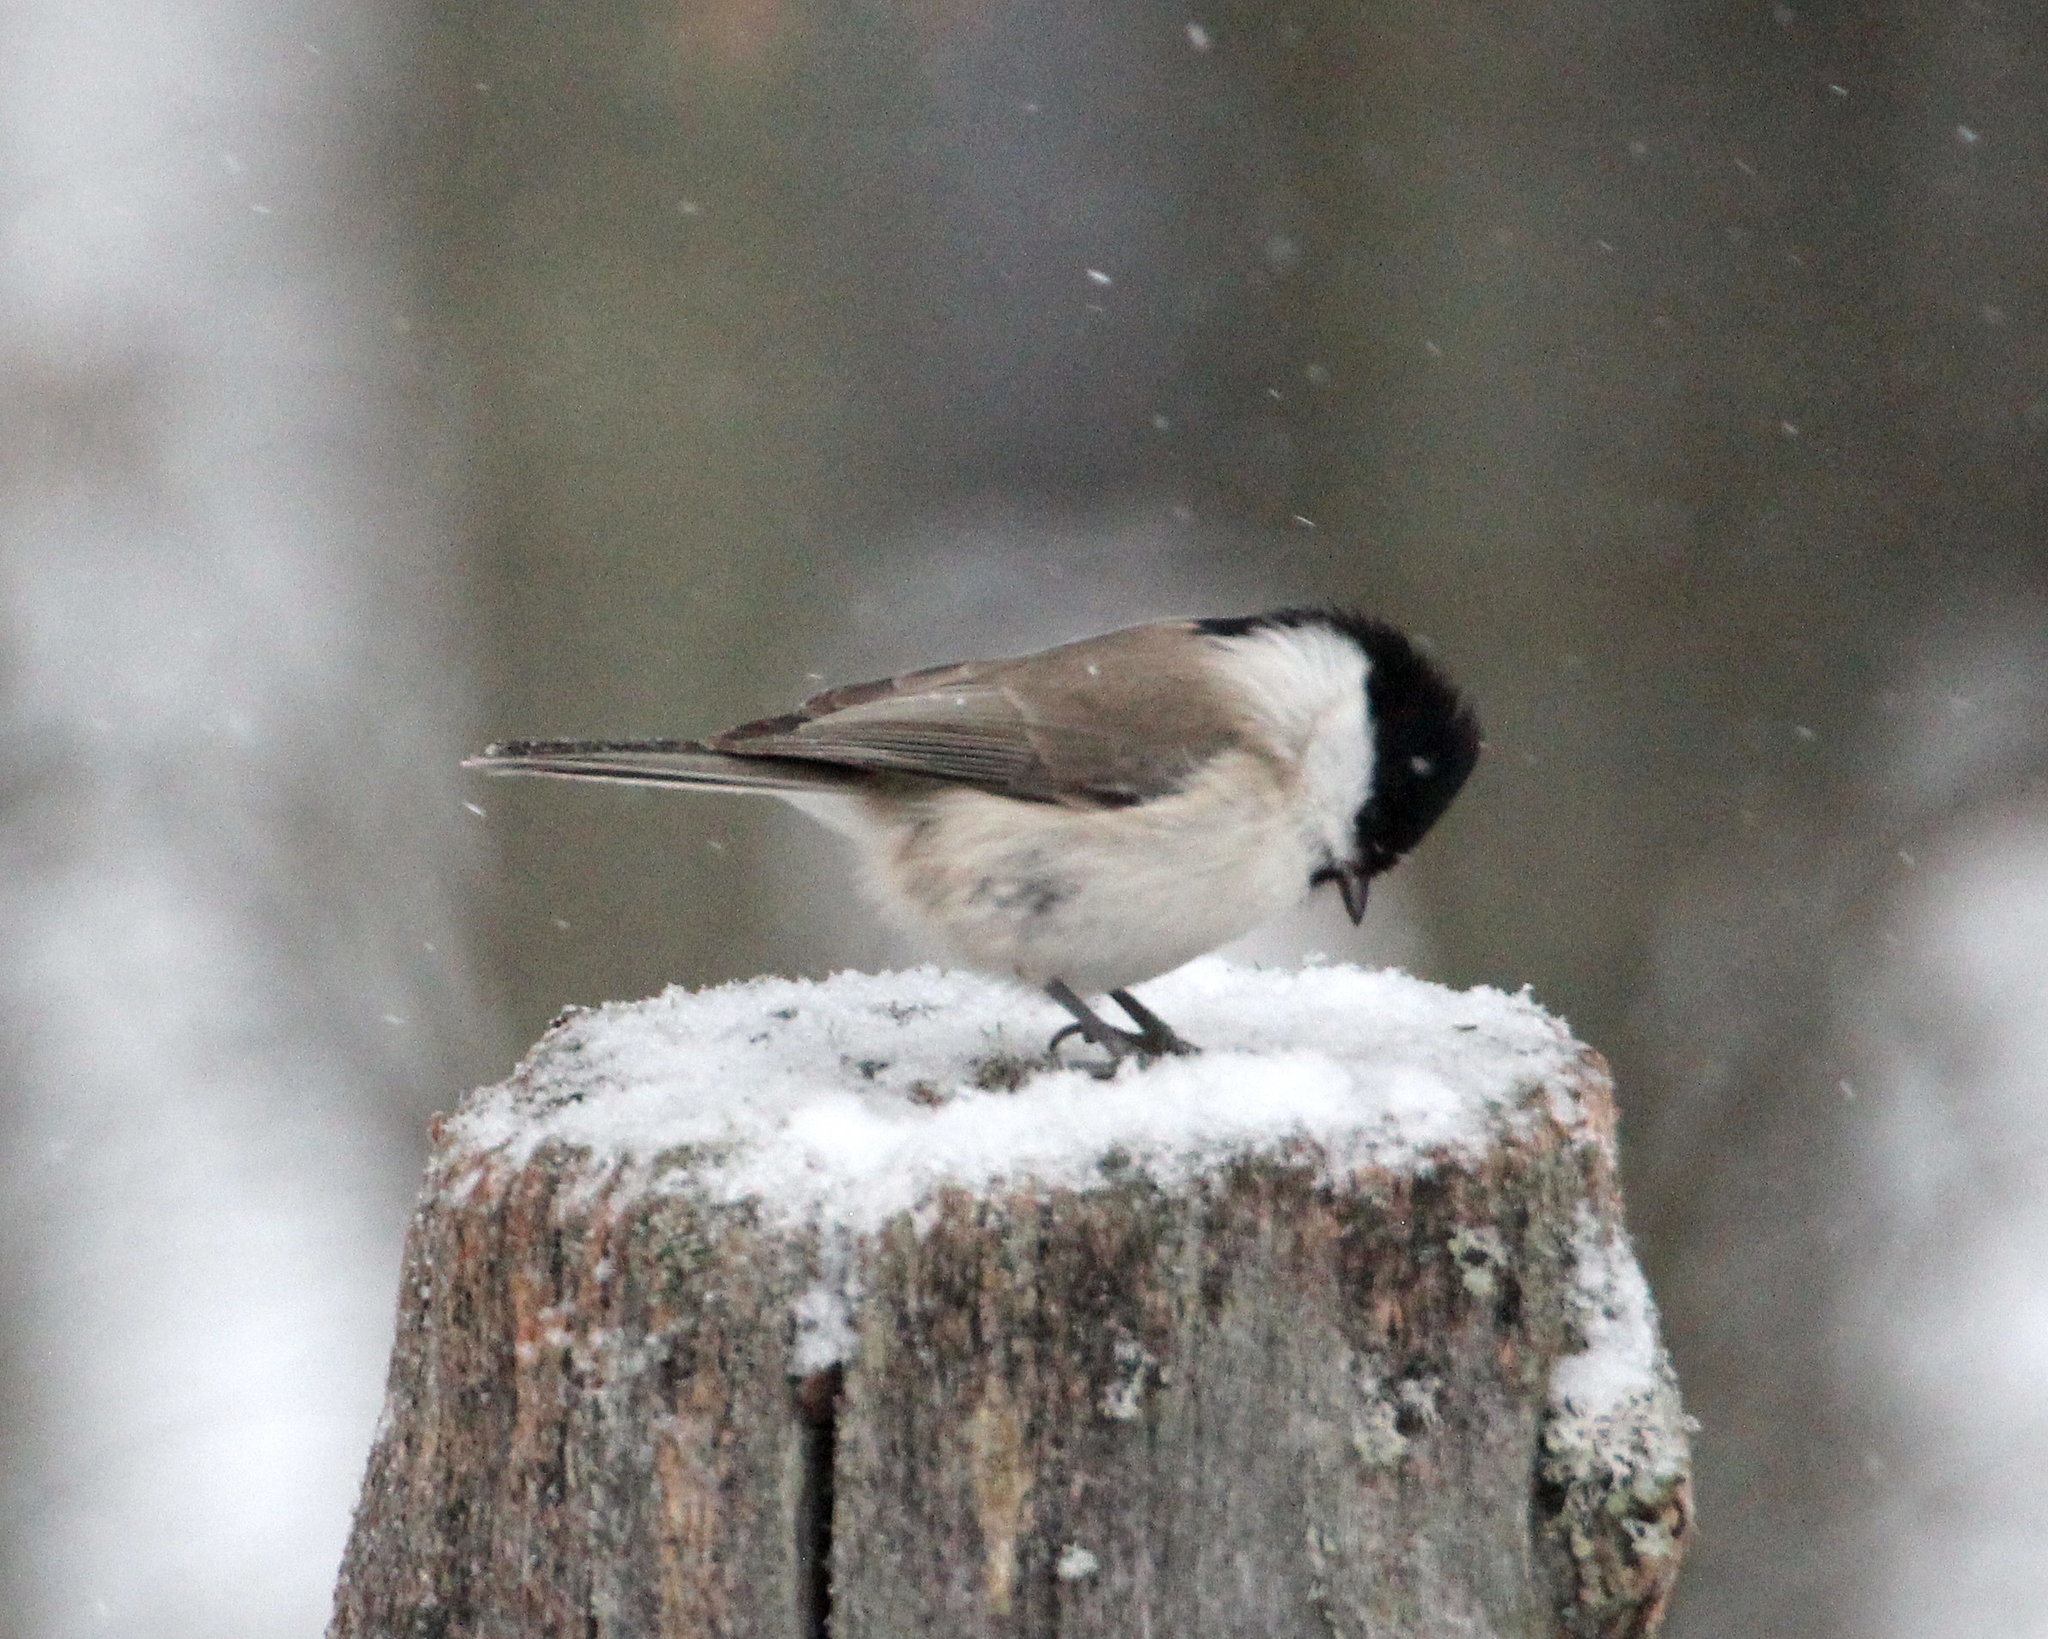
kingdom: Animalia
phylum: Chordata
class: Aves
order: Passeriformes
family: Paridae
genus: Poecile
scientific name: Poecile palustris
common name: Marsh tit
